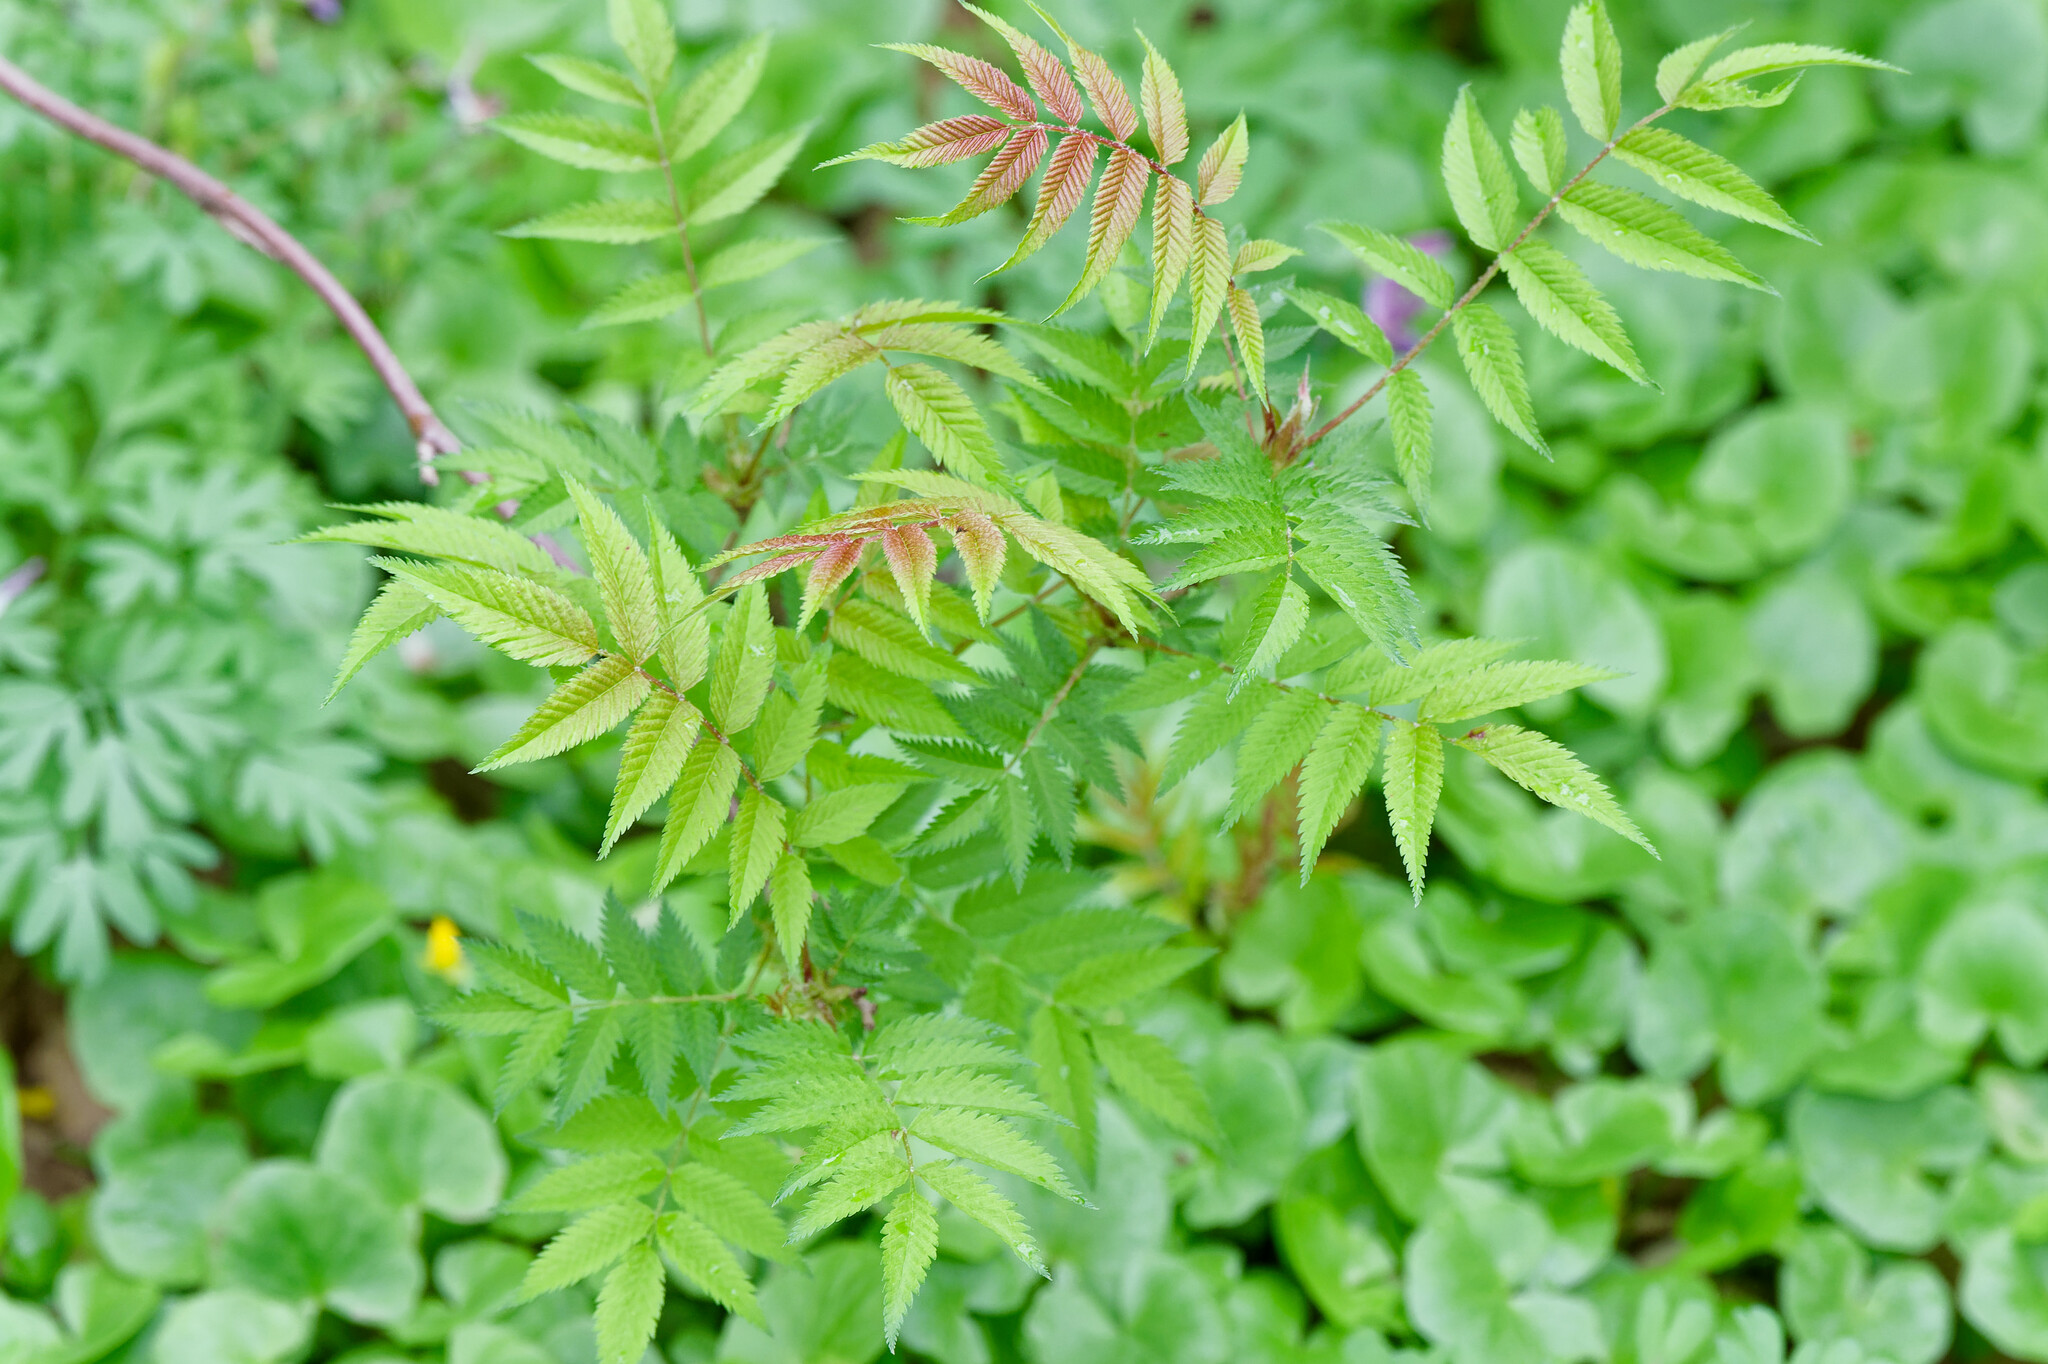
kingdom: Plantae
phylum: Tracheophyta
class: Magnoliopsida
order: Rosales
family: Rosaceae
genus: Sorbaria
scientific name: Sorbaria sorbifolia
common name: False spiraea
